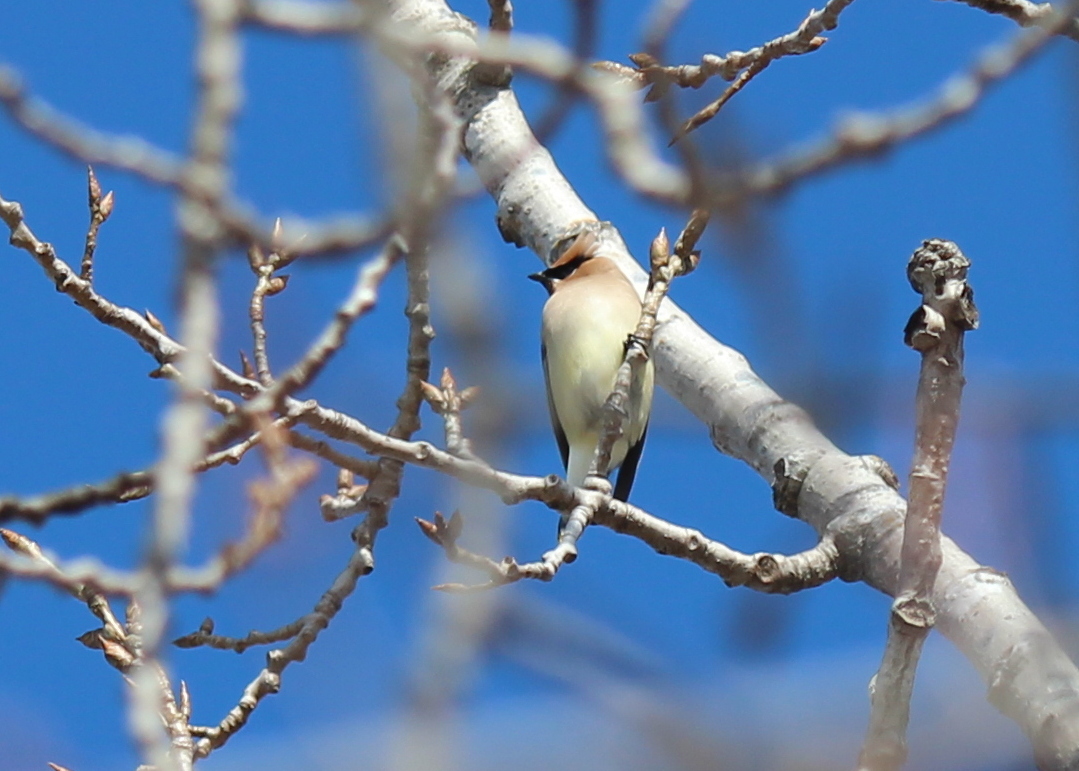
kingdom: Animalia
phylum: Chordata
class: Aves
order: Passeriformes
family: Bombycillidae
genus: Bombycilla
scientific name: Bombycilla cedrorum
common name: Cedar waxwing
